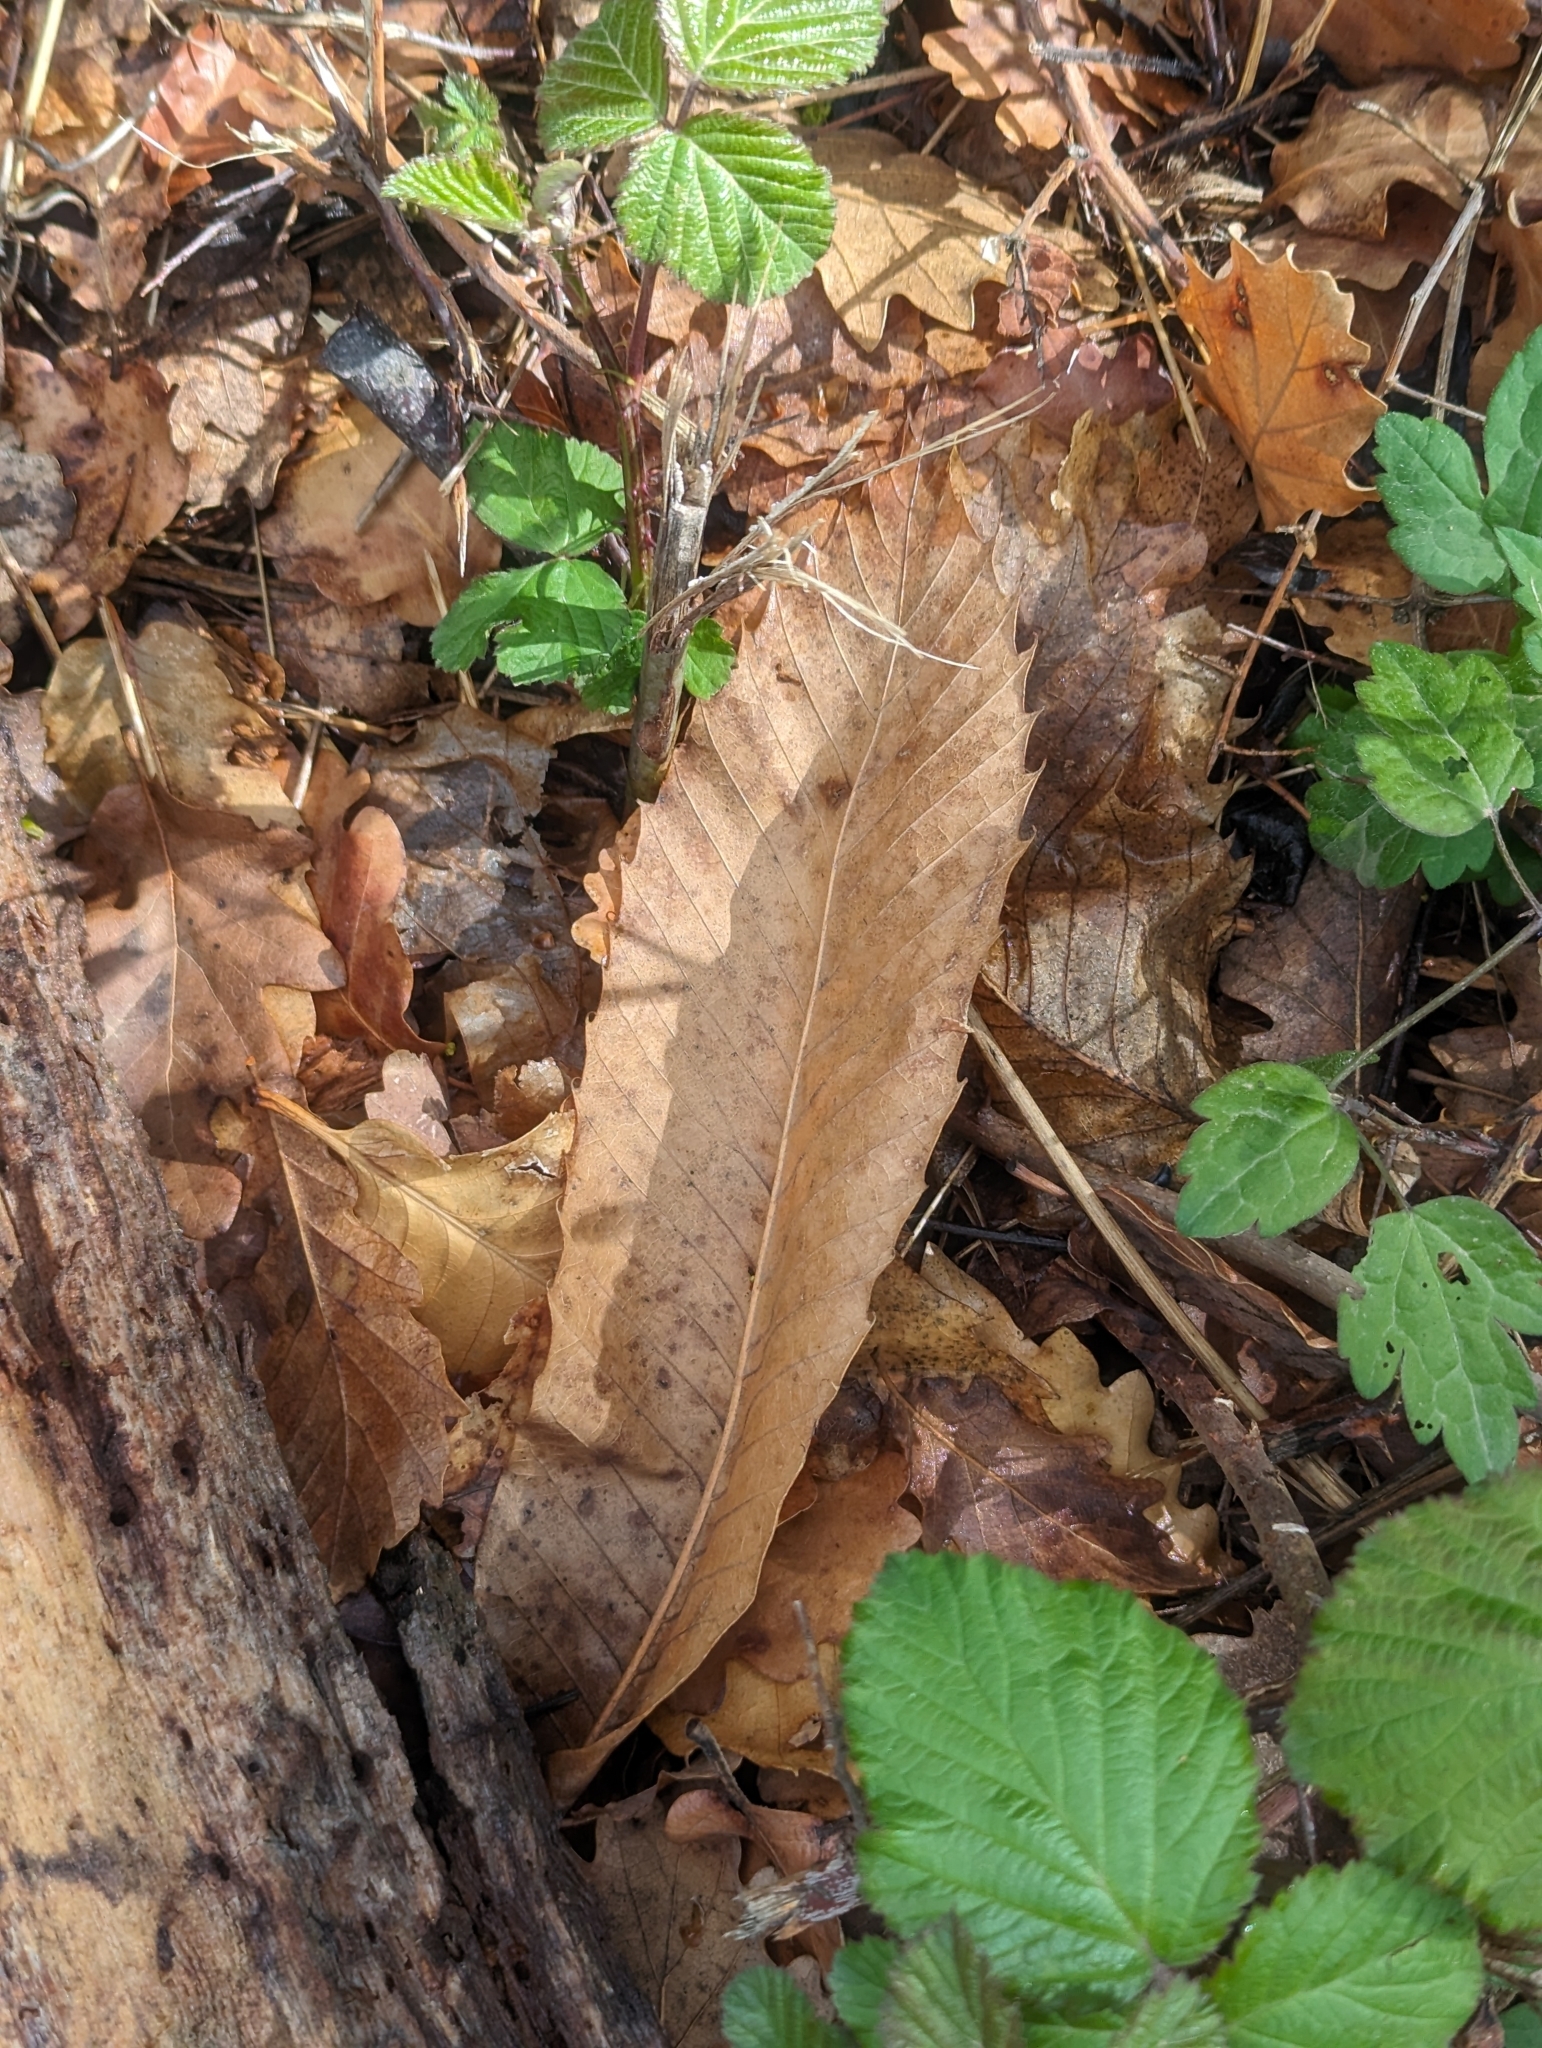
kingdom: Plantae
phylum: Tracheophyta
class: Magnoliopsida
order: Fagales
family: Fagaceae
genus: Castanea
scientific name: Castanea sativa
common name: Sweet chestnut
